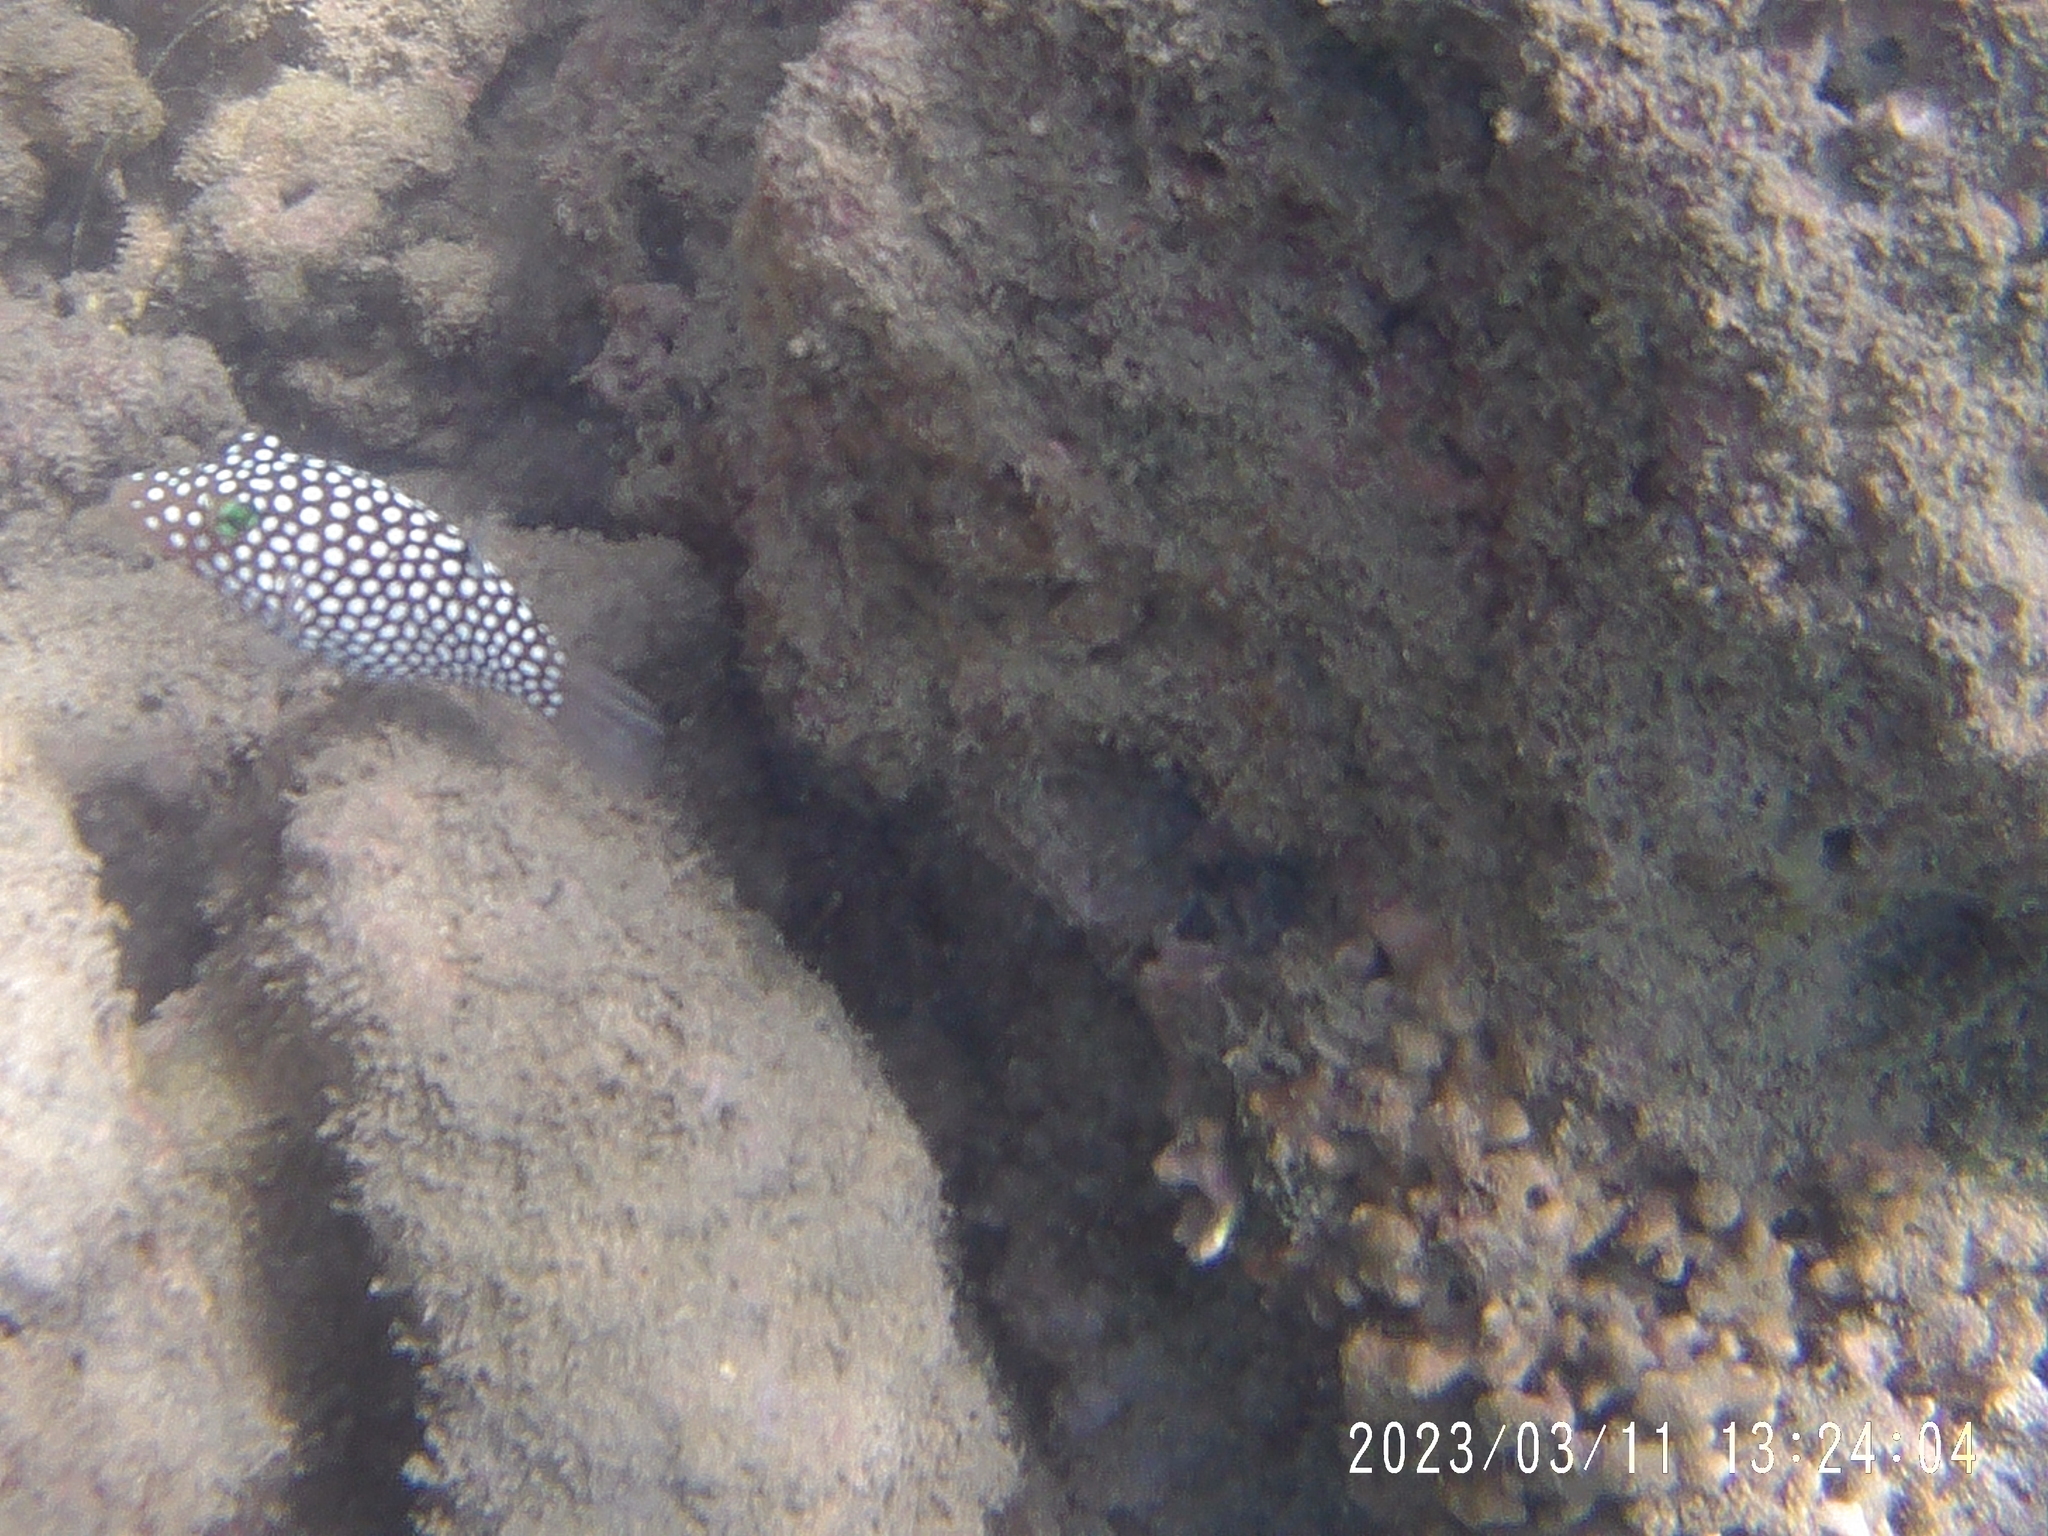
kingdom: Animalia
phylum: Chordata
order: Tetraodontiformes
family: Tetraodontidae
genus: Canthigaster
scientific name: Canthigaster jactator
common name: Hawaiian whitespotted toby
